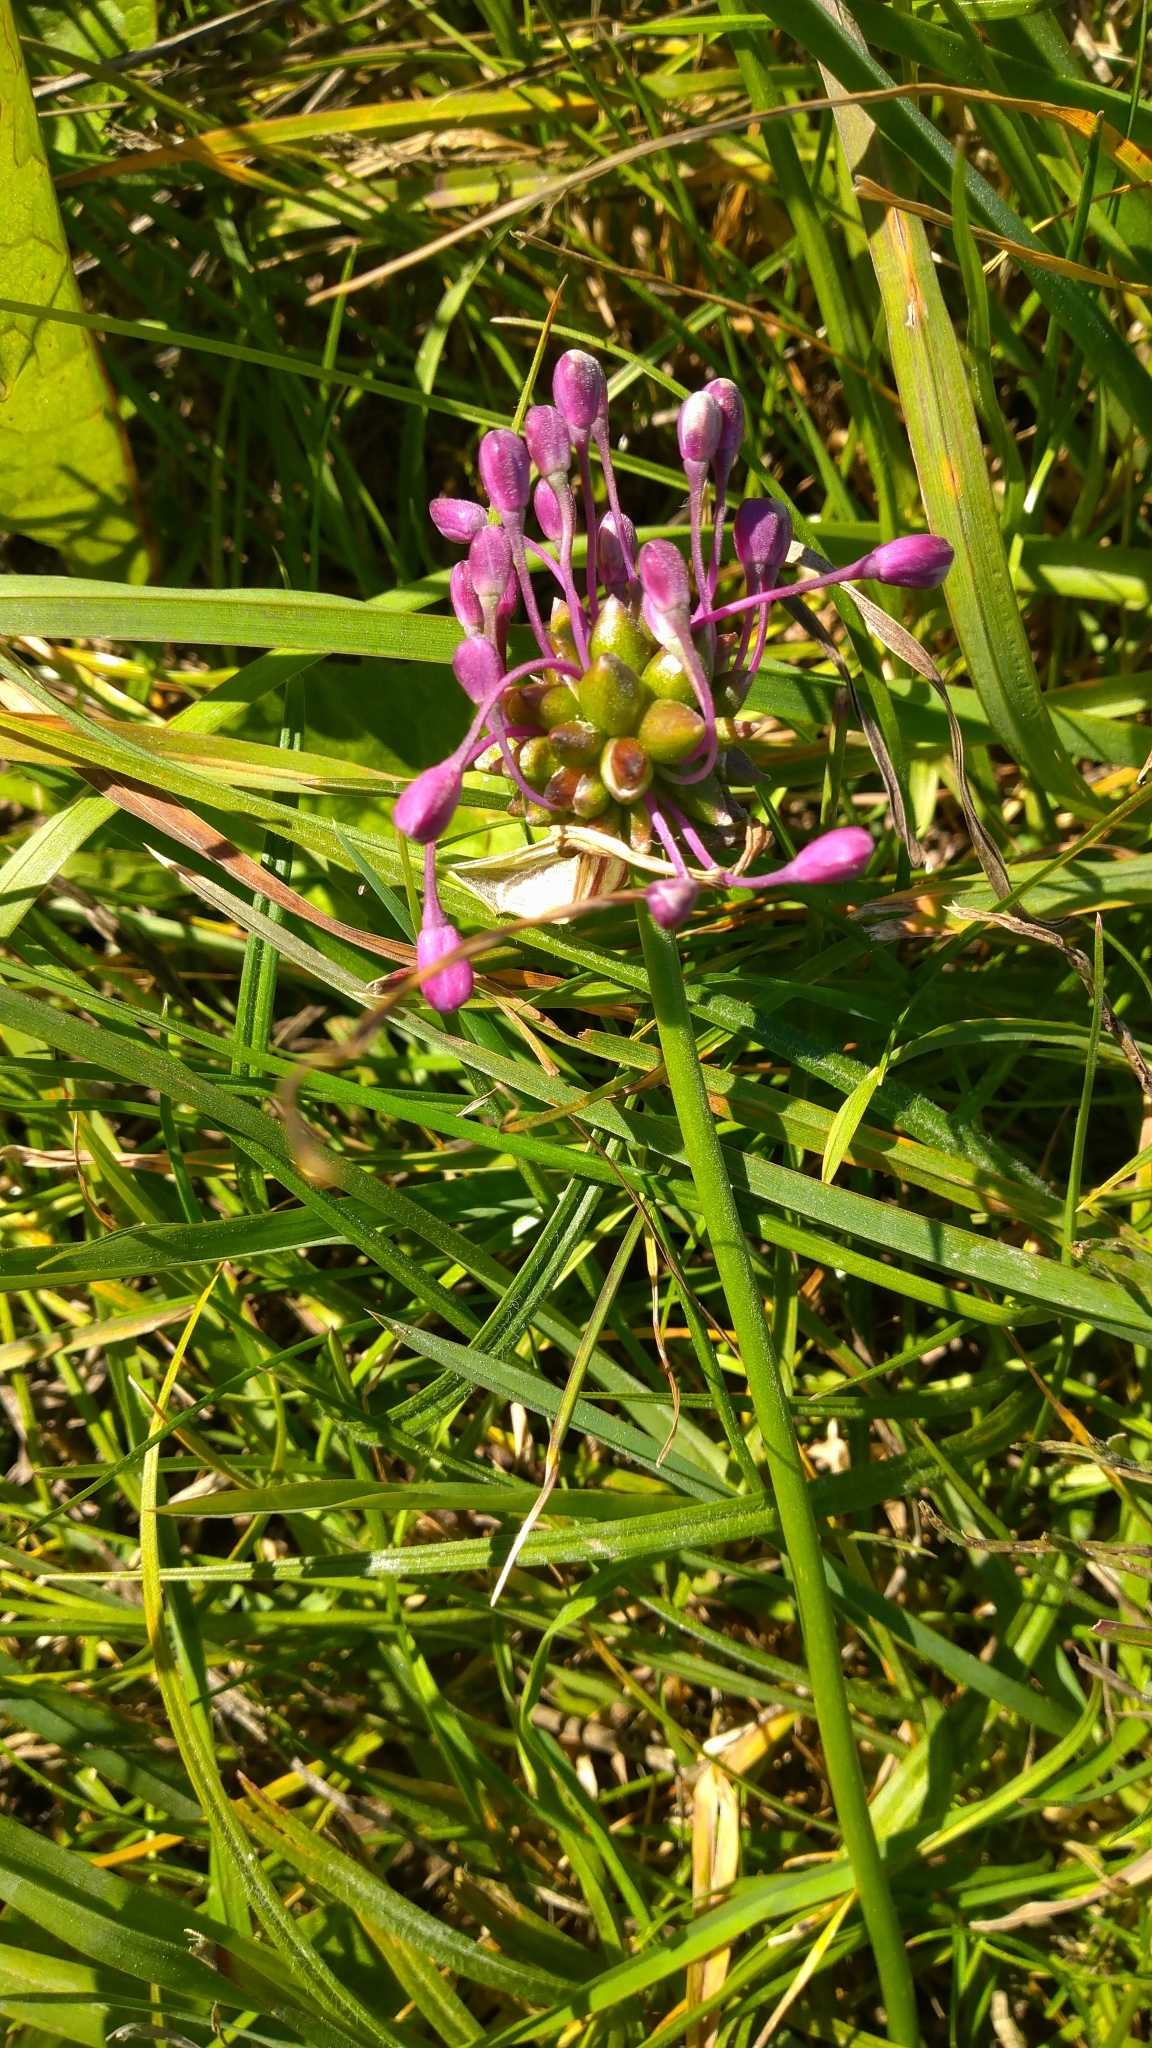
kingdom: Plantae
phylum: Tracheophyta
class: Liliopsida
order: Asparagales
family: Amaryllidaceae
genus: Allium
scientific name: Allium carinatum
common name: Keeled garlic
